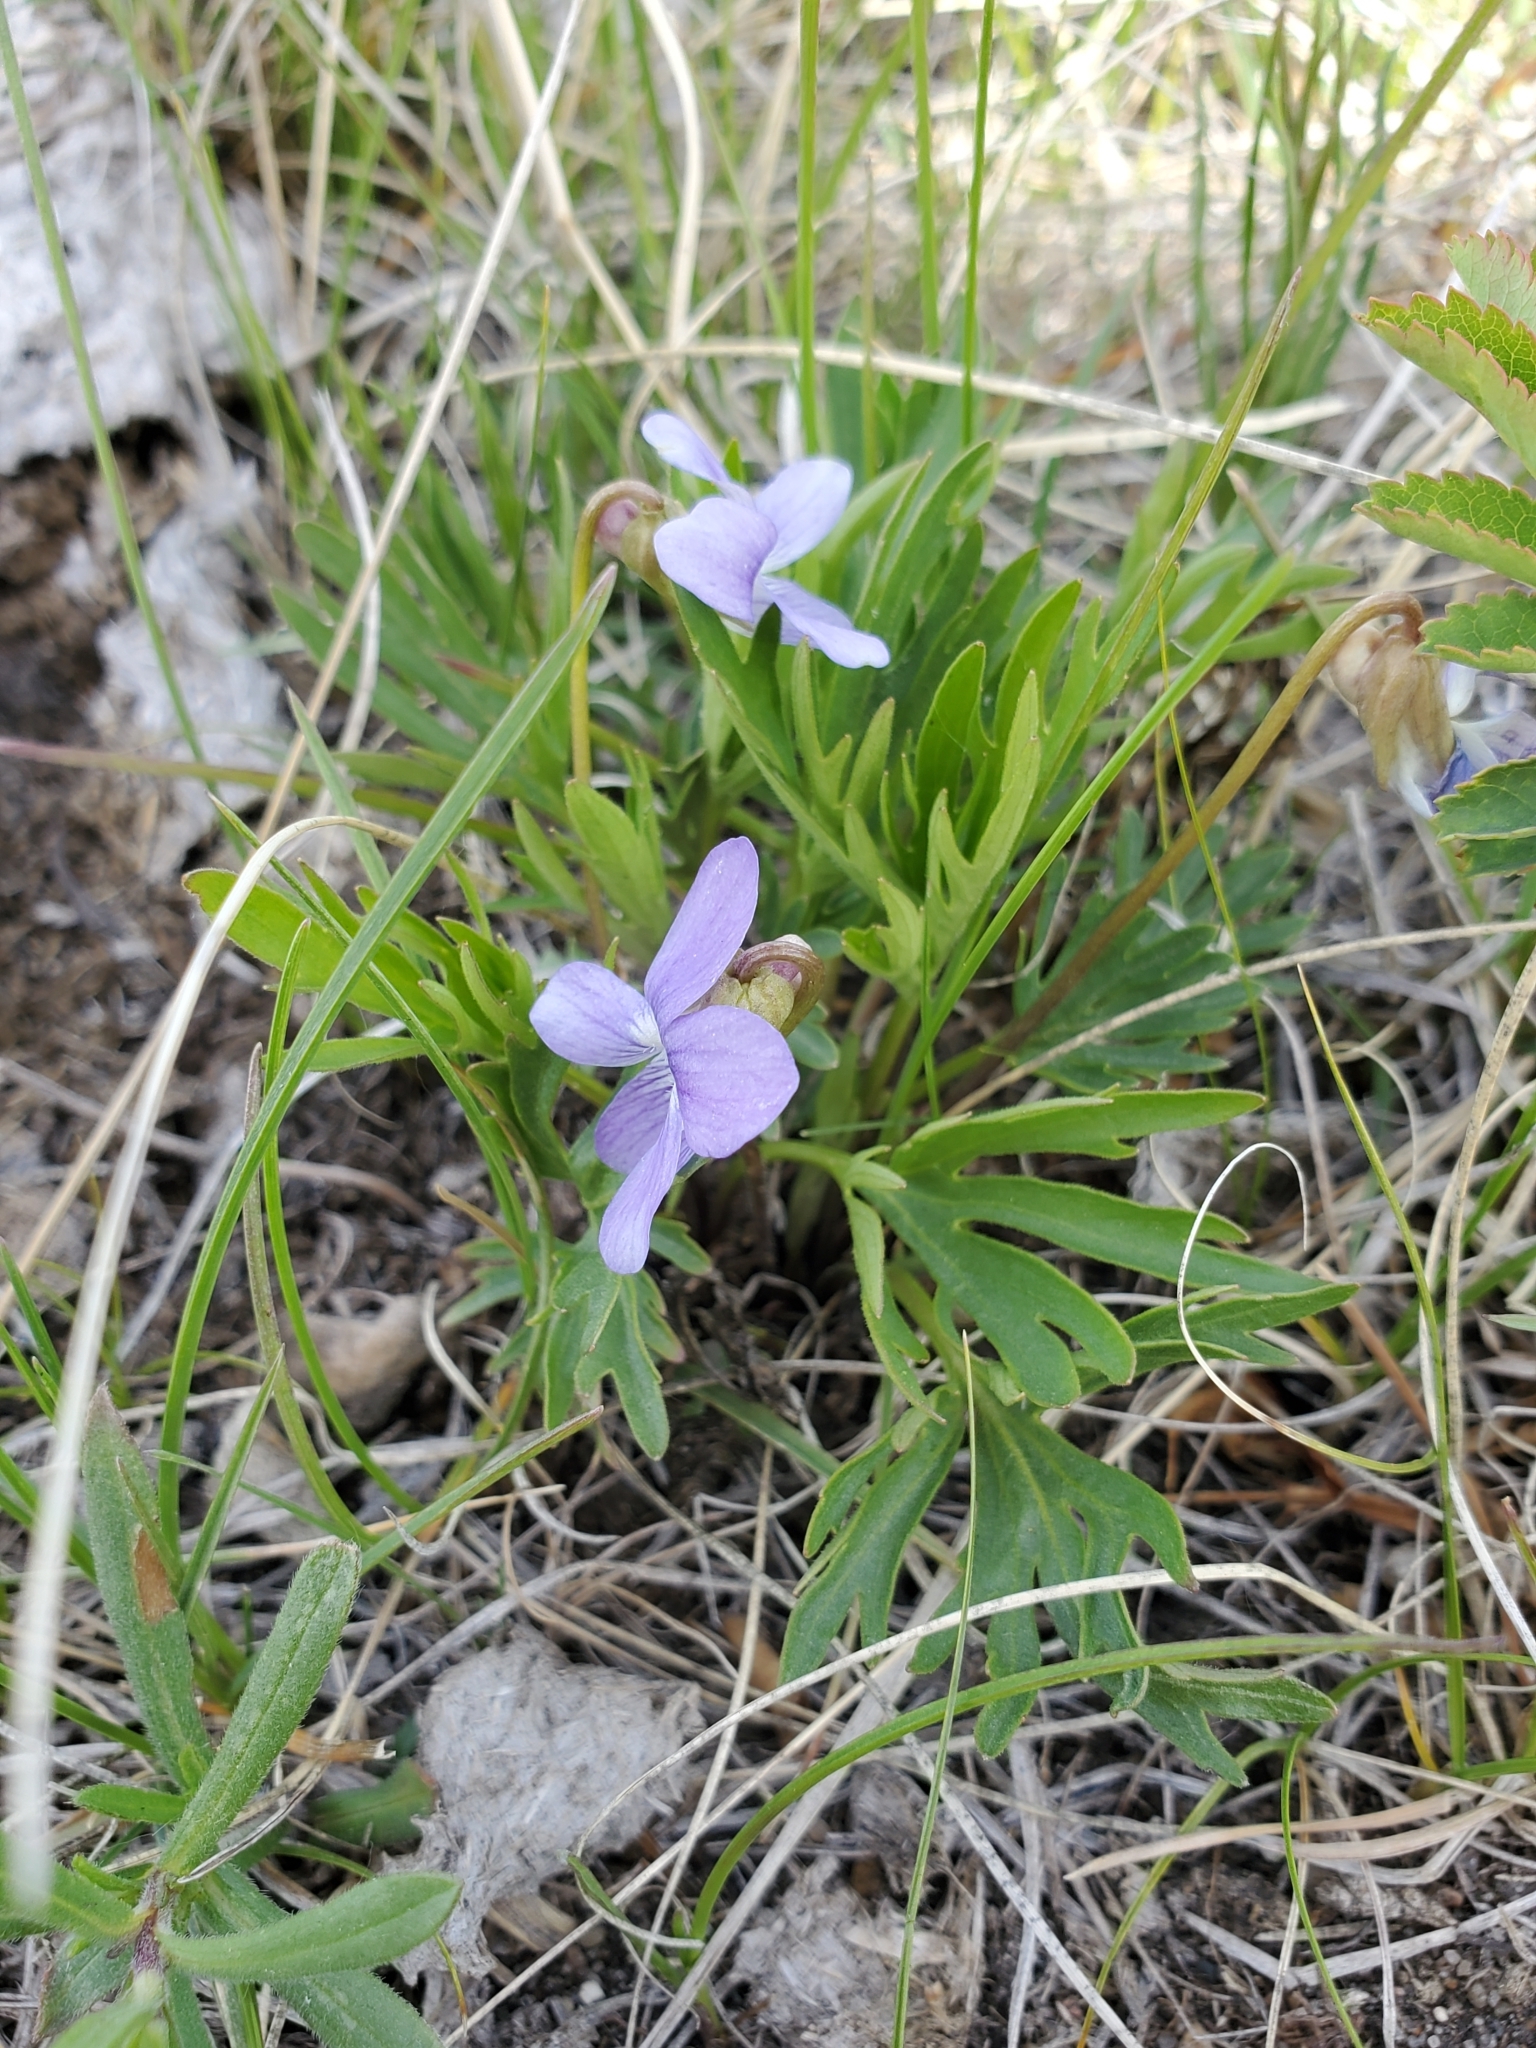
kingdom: Plantae
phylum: Tracheophyta
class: Magnoliopsida
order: Malpighiales
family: Violaceae
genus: Viola
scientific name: Viola pedatifida
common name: Prairie violet
